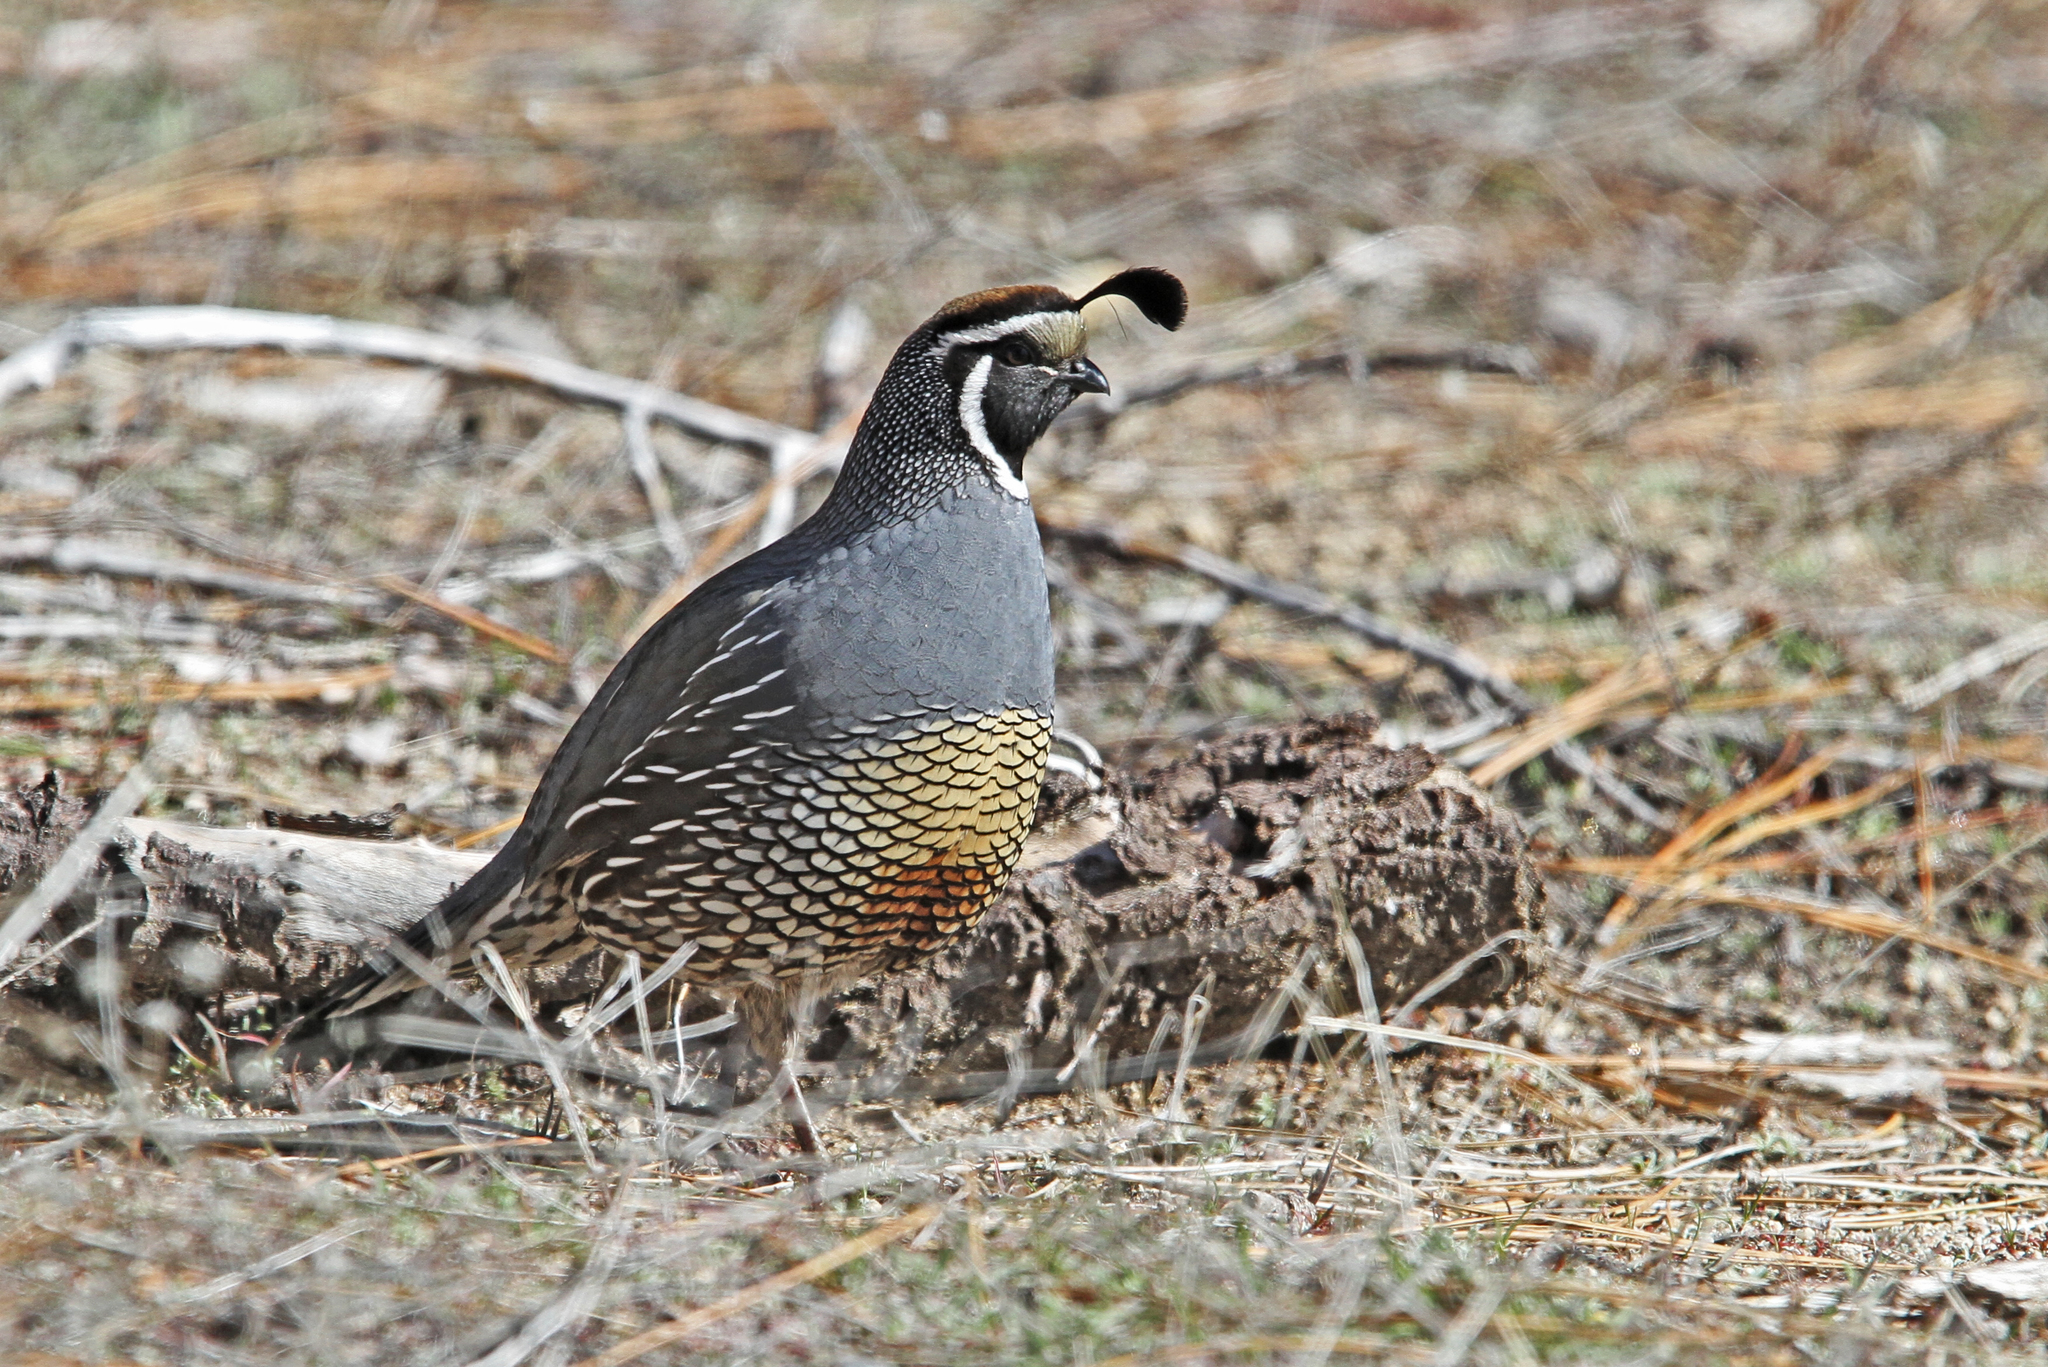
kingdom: Animalia
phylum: Chordata
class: Aves
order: Galliformes
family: Odontophoridae
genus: Callipepla
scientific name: Callipepla californica
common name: California quail
